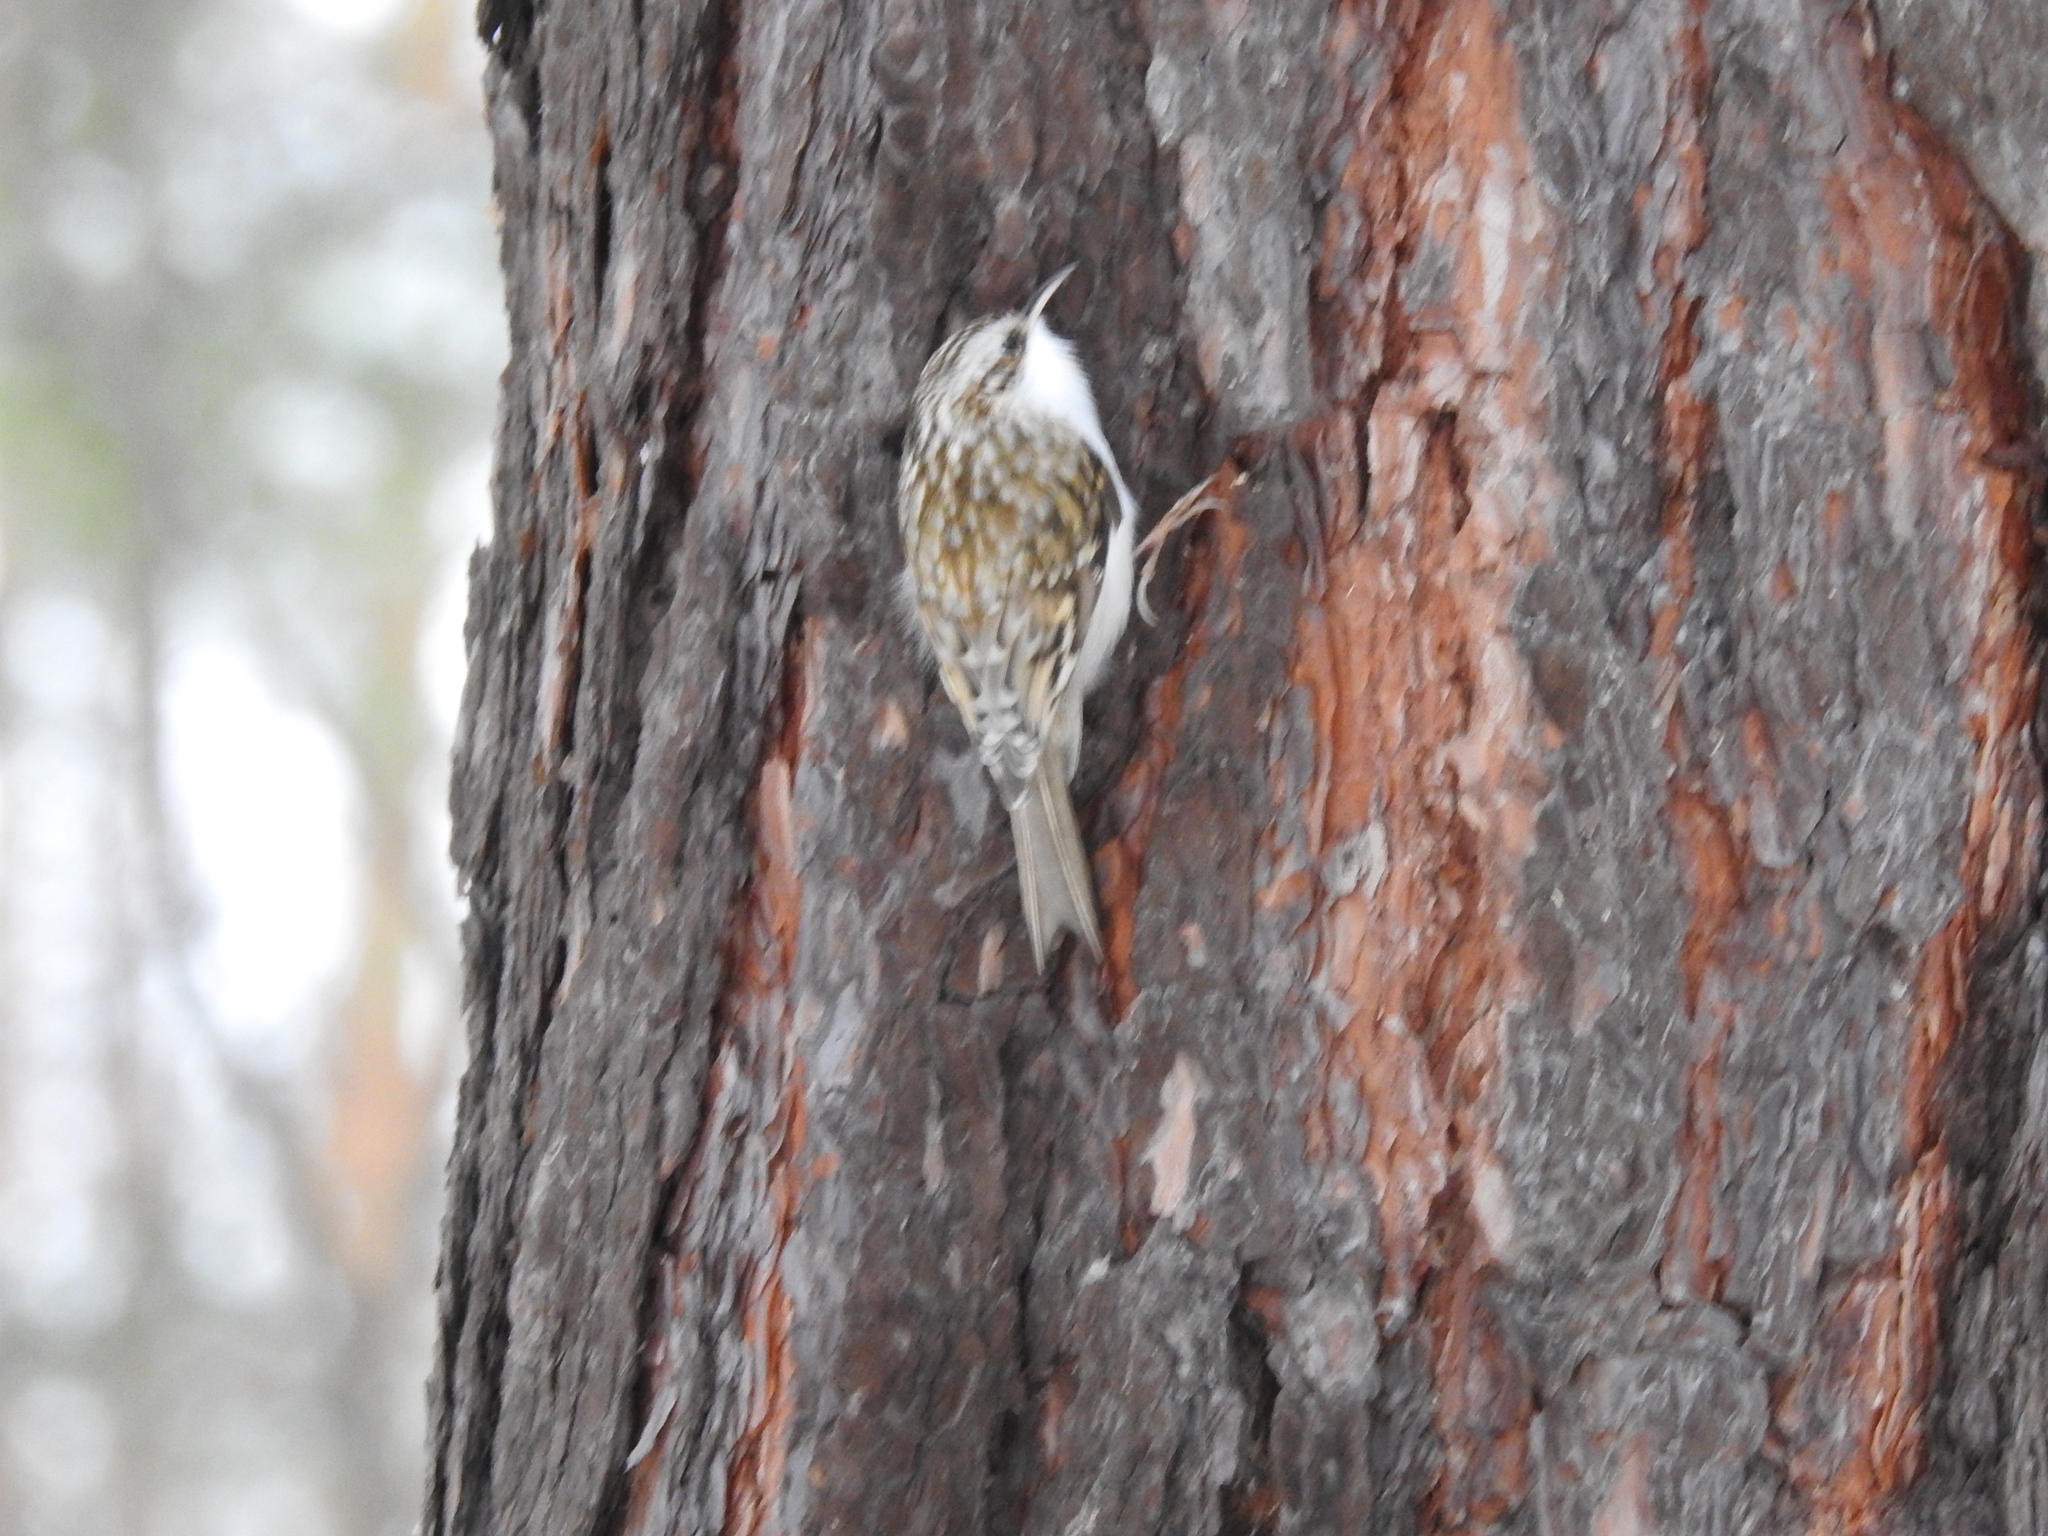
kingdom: Animalia
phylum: Chordata
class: Aves
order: Passeriformes
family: Certhiidae
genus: Certhia
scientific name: Certhia familiaris
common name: Eurasian treecreeper
